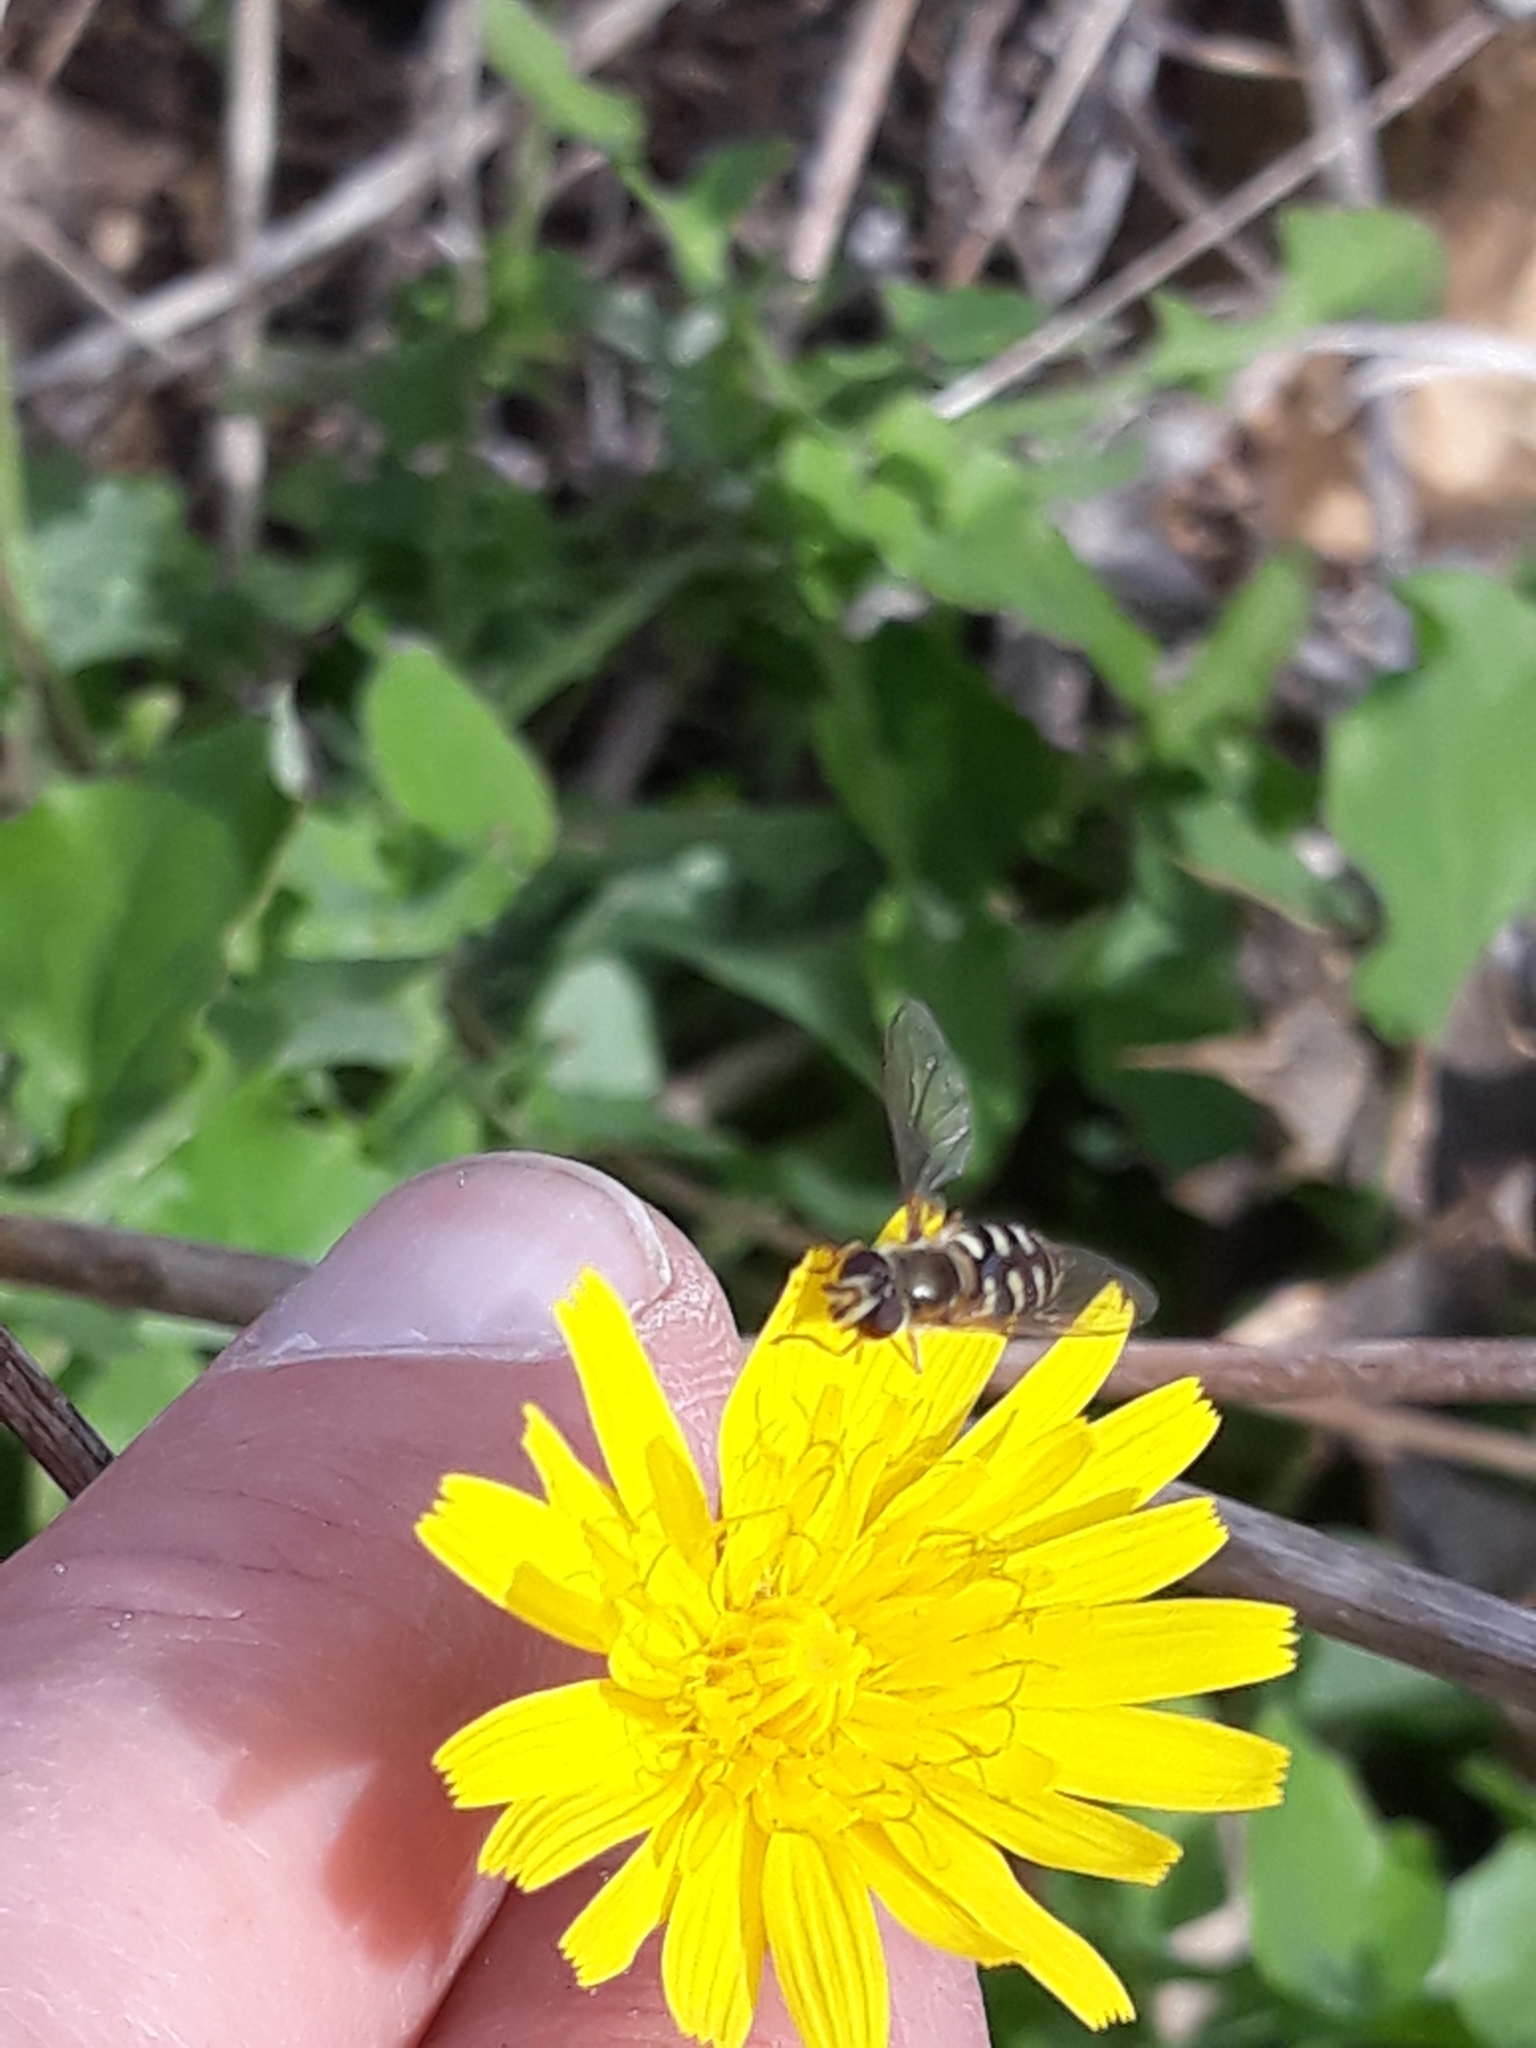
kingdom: Animalia
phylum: Arthropoda
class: Insecta
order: Diptera
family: Syrphidae
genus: Eupeodes
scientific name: Eupeodes corollae
